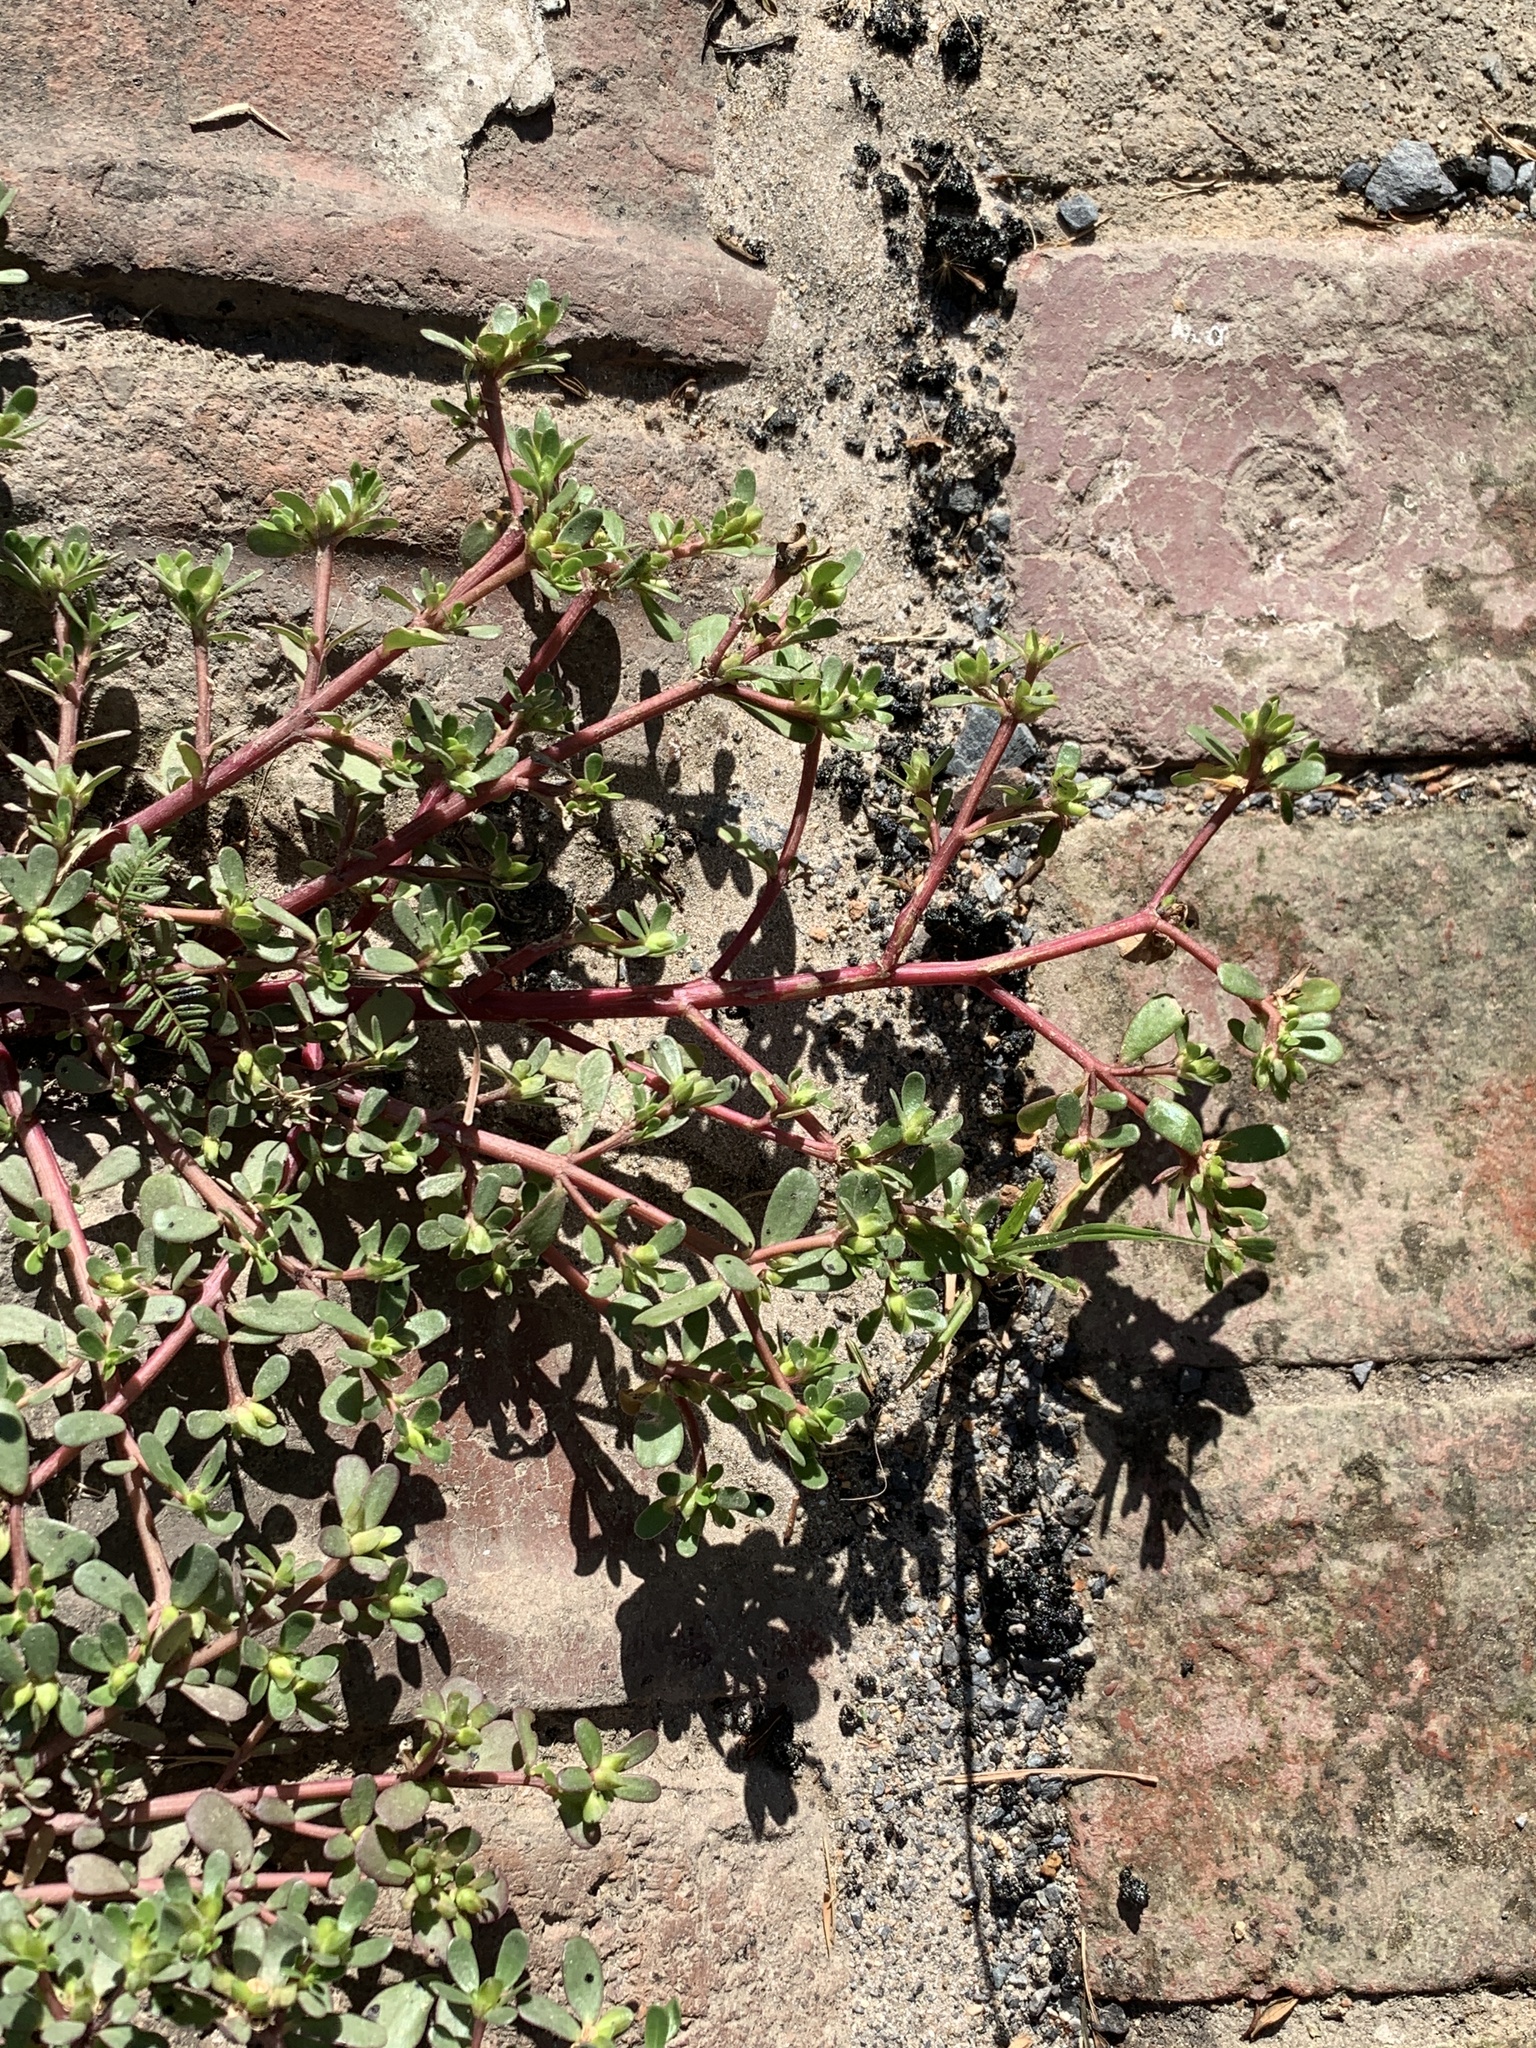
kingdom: Plantae
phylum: Tracheophyta
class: Magnoliopsida
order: Caryophyllales
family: Portulacaceae
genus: Portulaca
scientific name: Portulaca oleracea
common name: Common purslane
